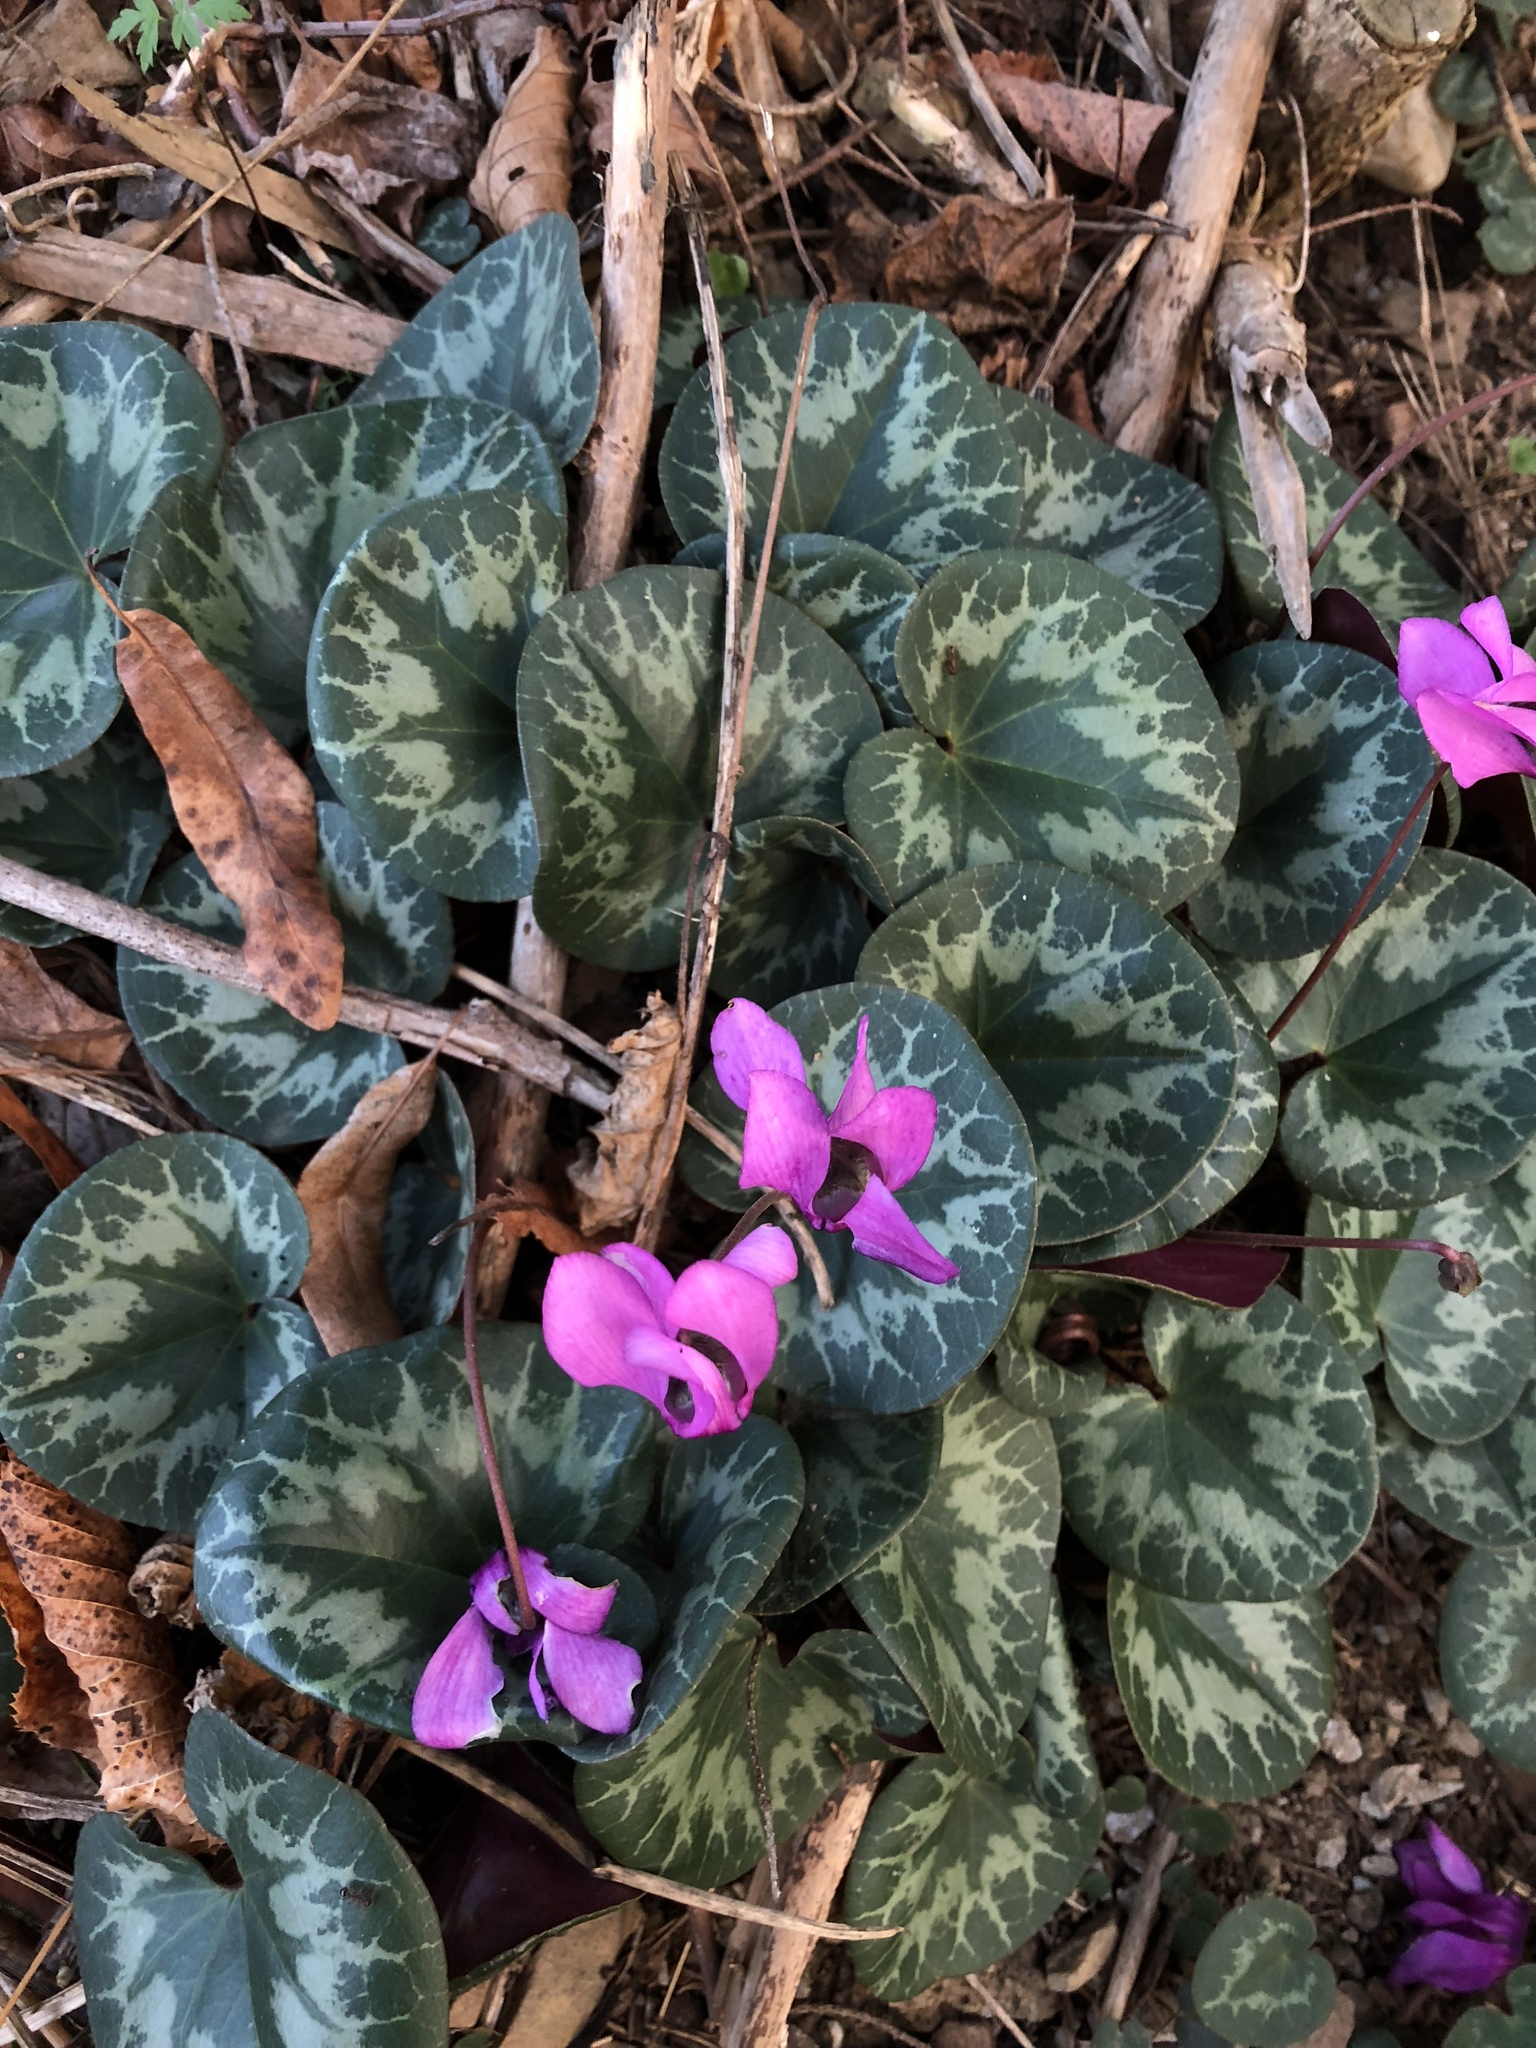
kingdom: Plantae
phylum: Tracheophyta
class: Magnoliopsida
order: Ericales
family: Primulaceae
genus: Cyclamen
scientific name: Cyclamen purpurascens
